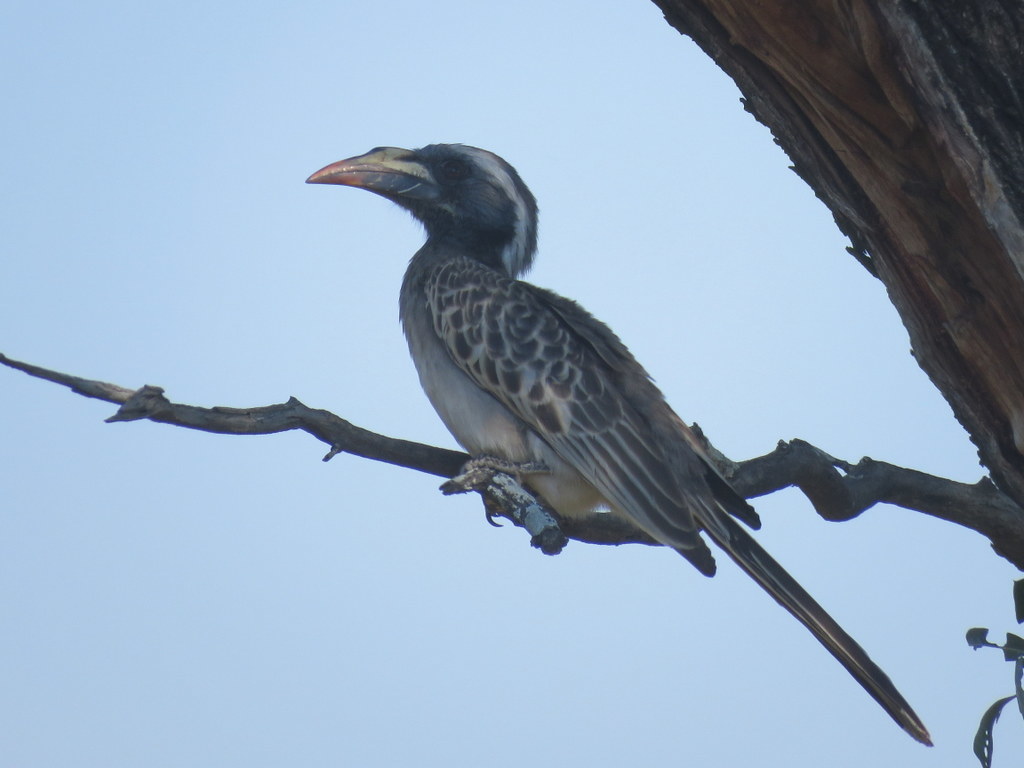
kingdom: Animalia
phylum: Chordata
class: Aves
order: Bucerotiformes
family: Bucerotidae
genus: Lophoceros
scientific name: Lophoceros nasutus
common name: African grey hornbill
